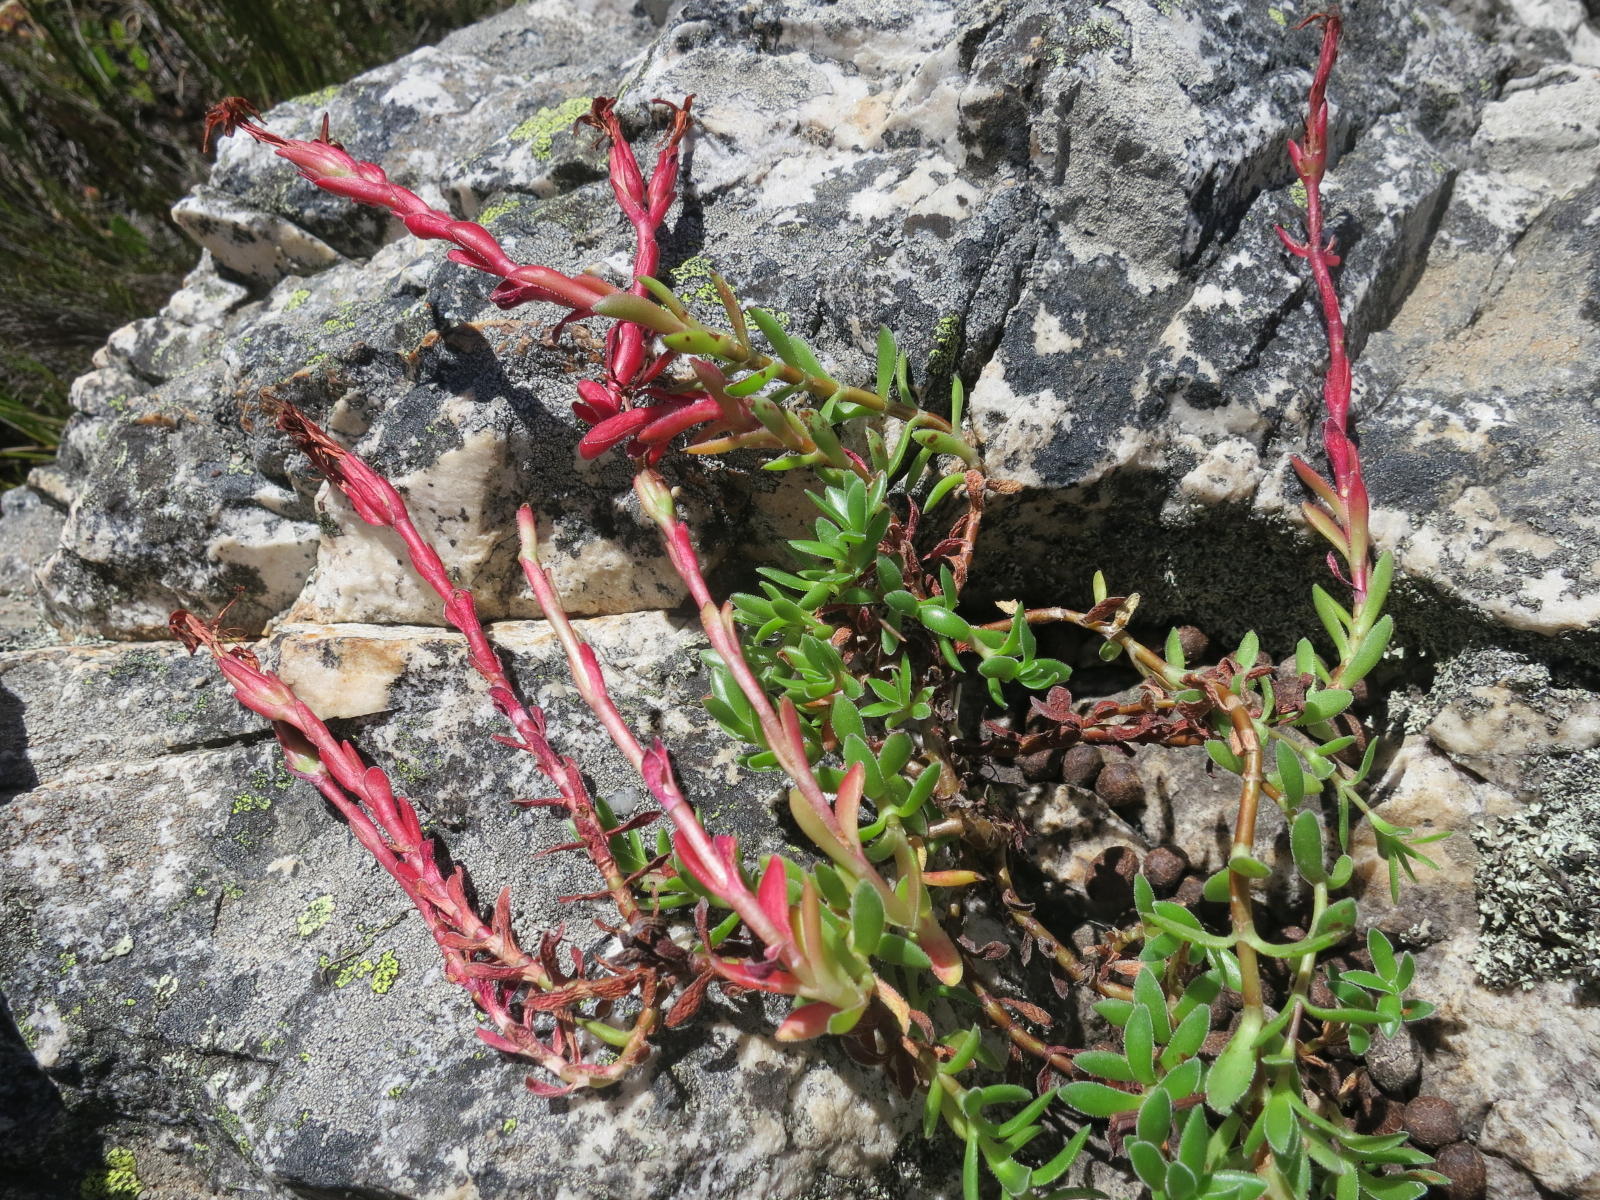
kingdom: Plantae
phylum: Tracheophyta
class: Magnoliopsida
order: Saxifragales
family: Crassulaceae
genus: Crassula
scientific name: Crassula obtusa
